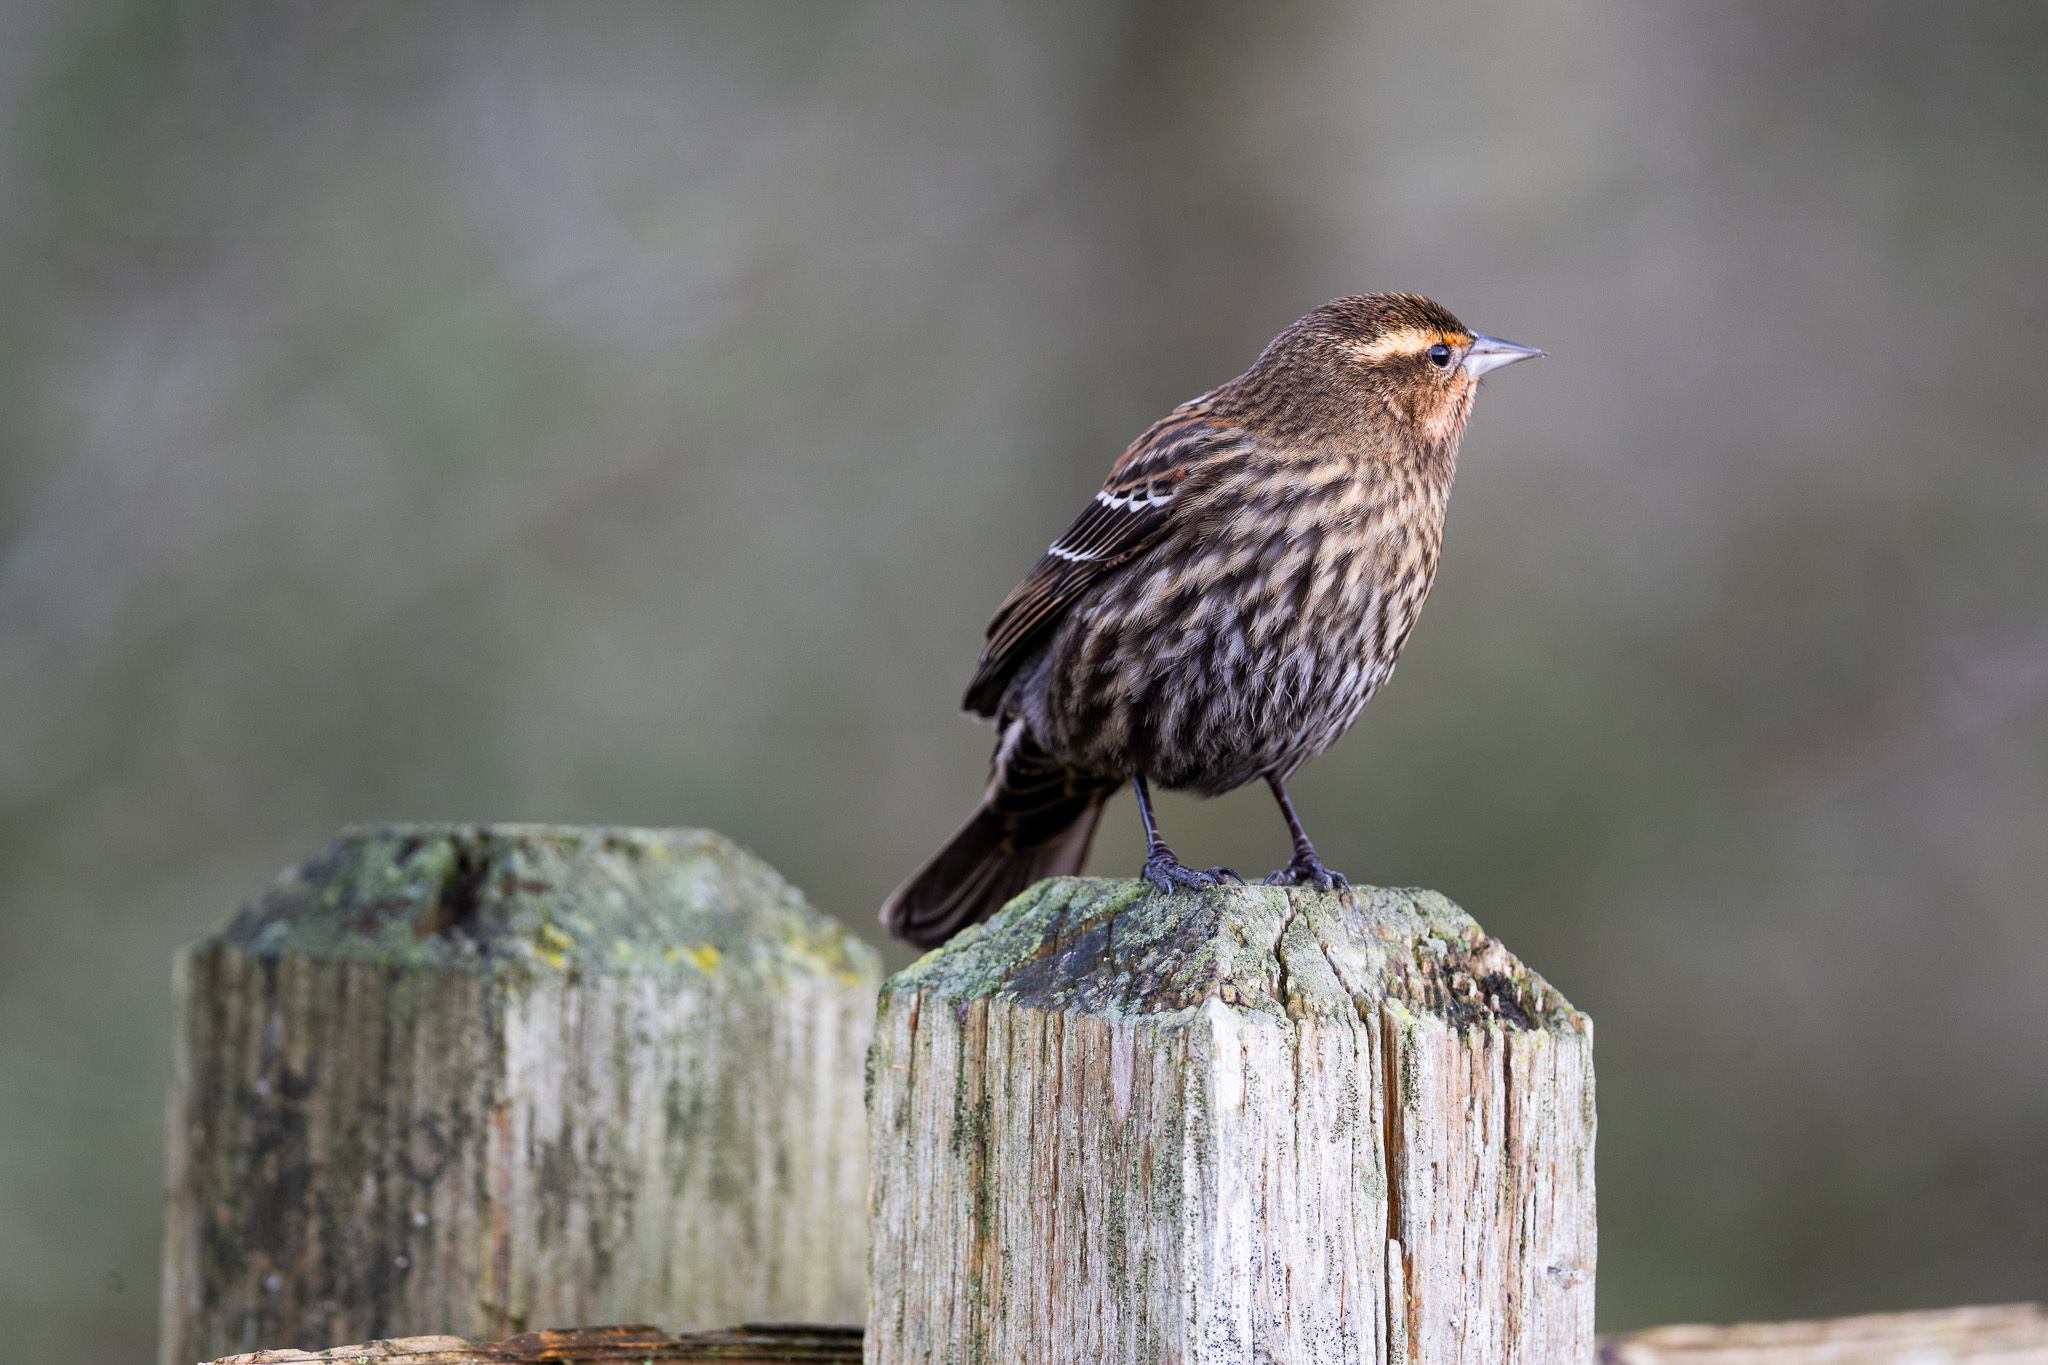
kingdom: Animalia
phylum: Chordata
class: Aves
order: Passeriformes
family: Icteridae
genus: Agelaius
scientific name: Agelaius phoeniceus
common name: Red-winged blackbird
